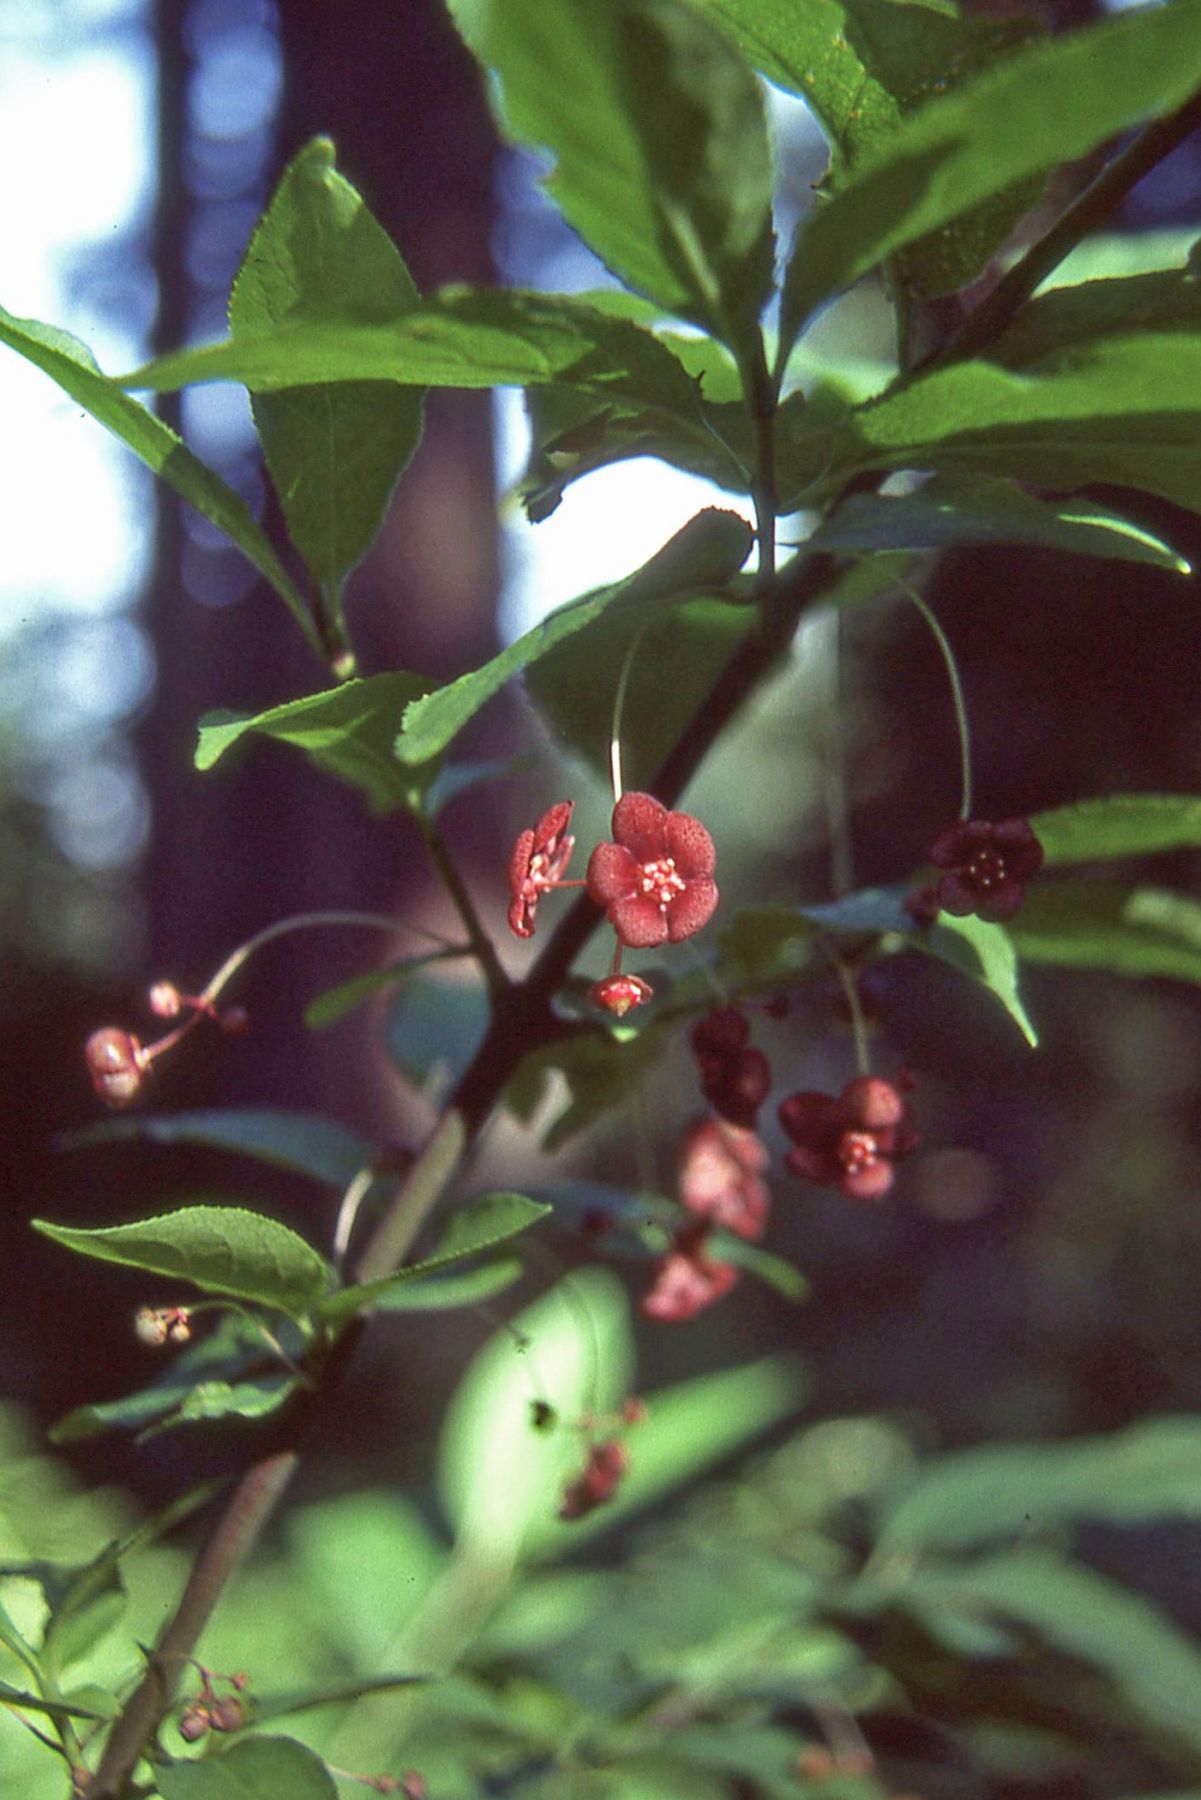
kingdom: Plantae
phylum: Tracheophyta
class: Magnoliopsida
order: Celastrales
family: Celastraceae
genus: Euonymus
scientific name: Euonymus occidentalis
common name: Western burningbush
